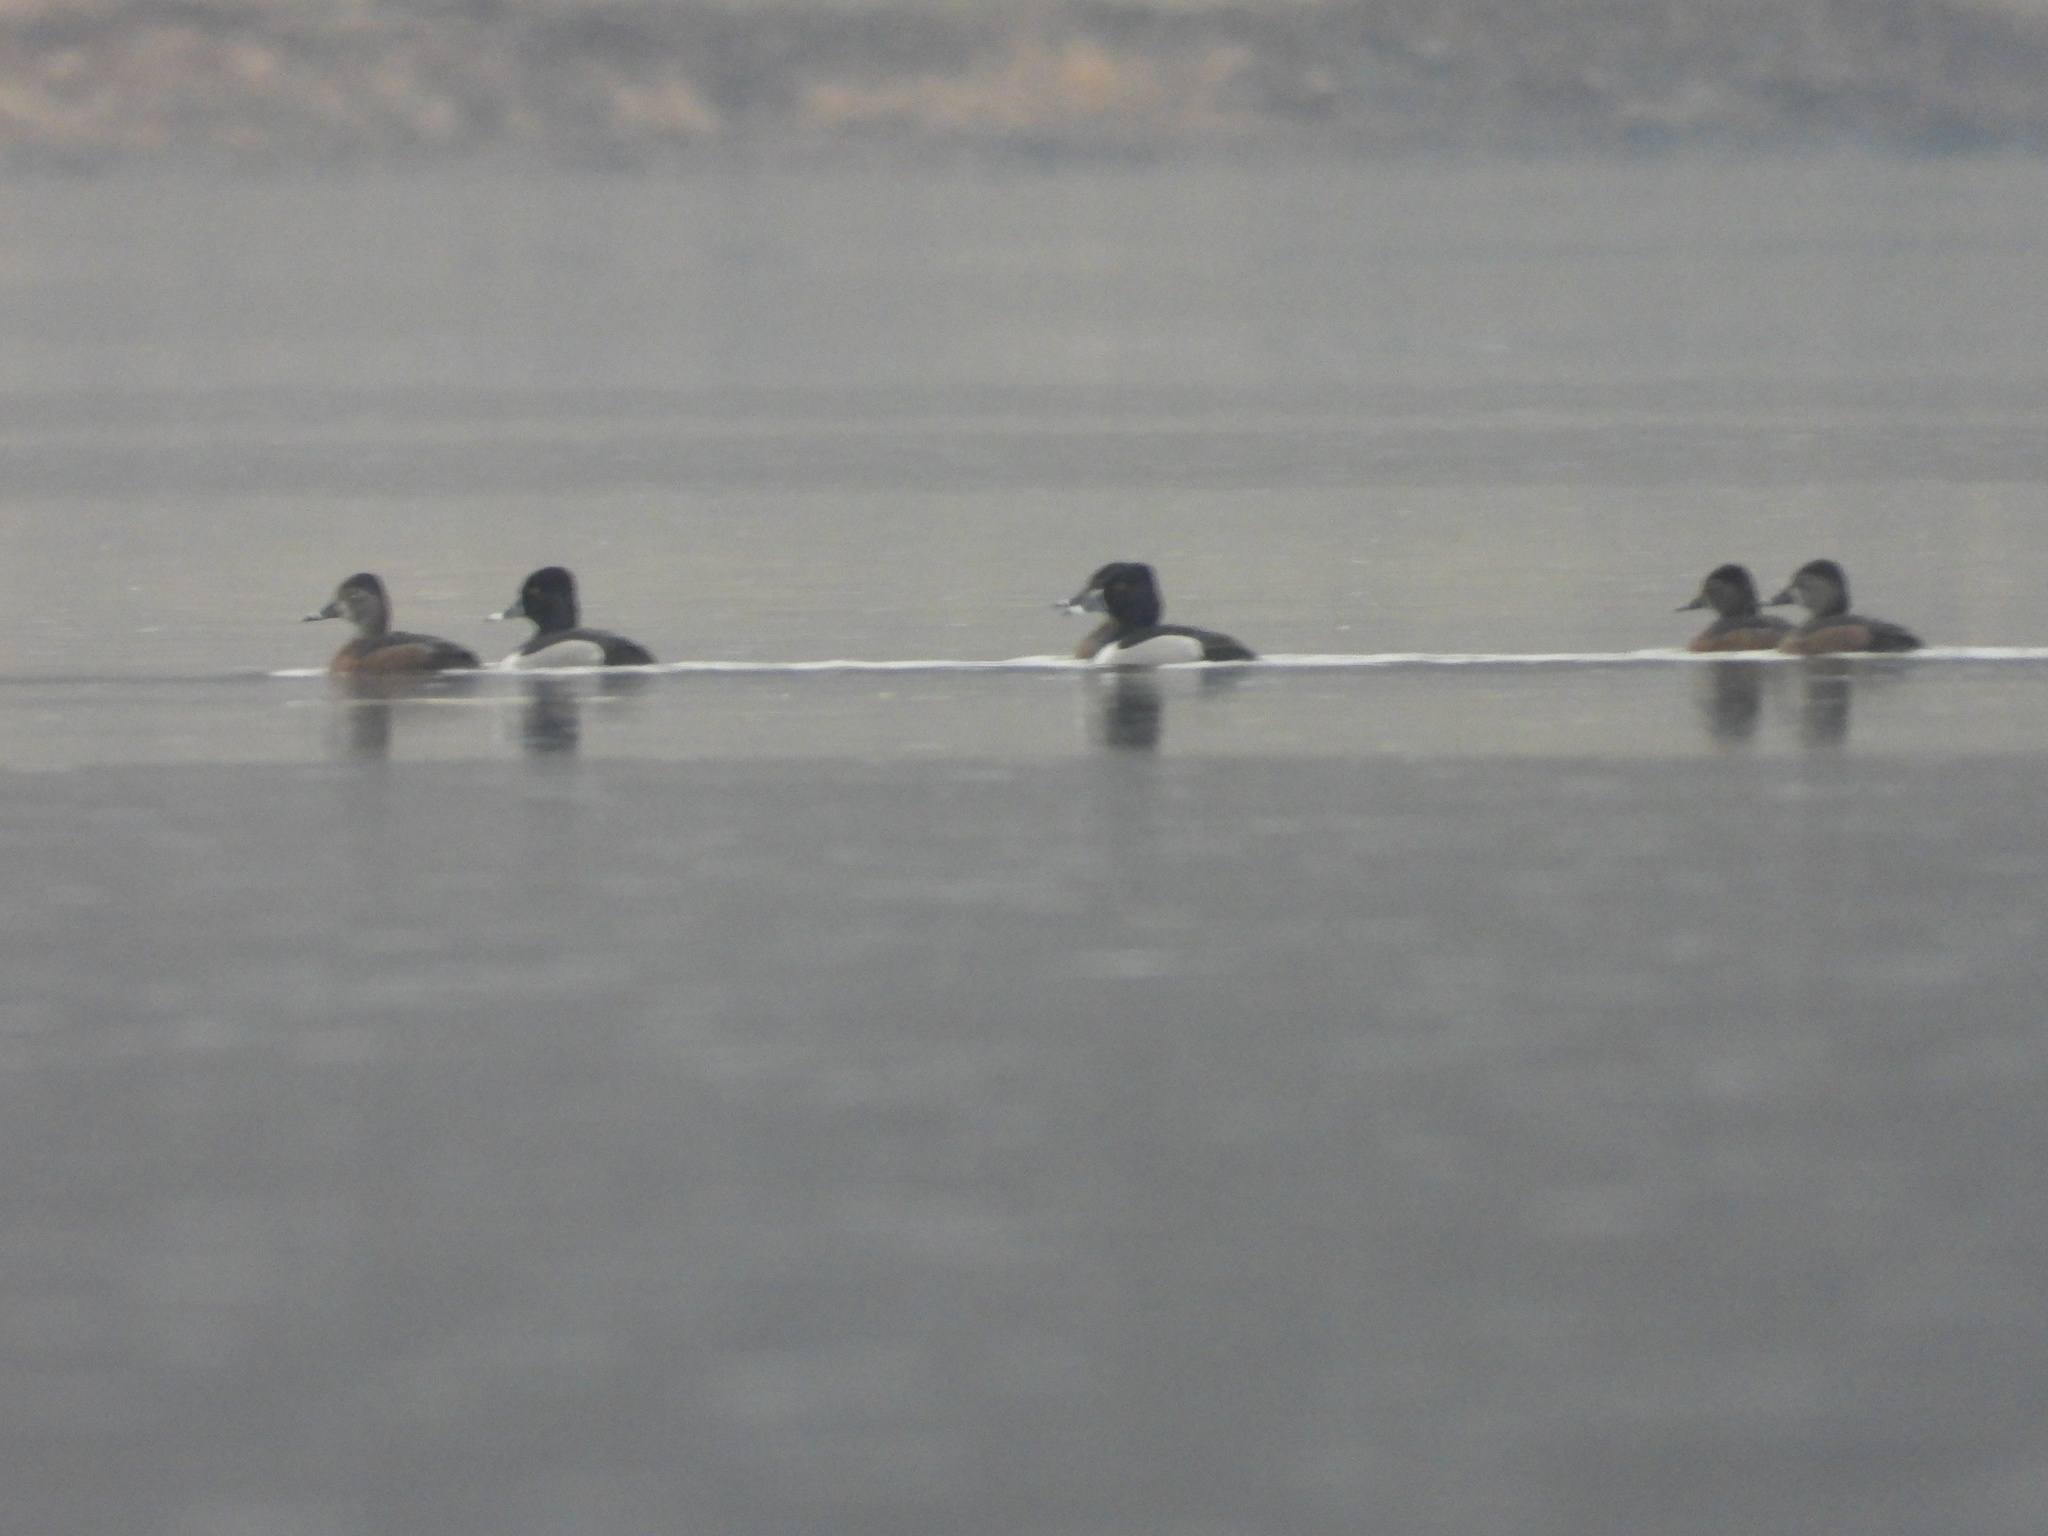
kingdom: Animalia
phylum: Chordata
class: Aves
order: Anseriformes
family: Anatidae
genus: Aythya
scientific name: Aythya collaris
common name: Ring-necked duck
